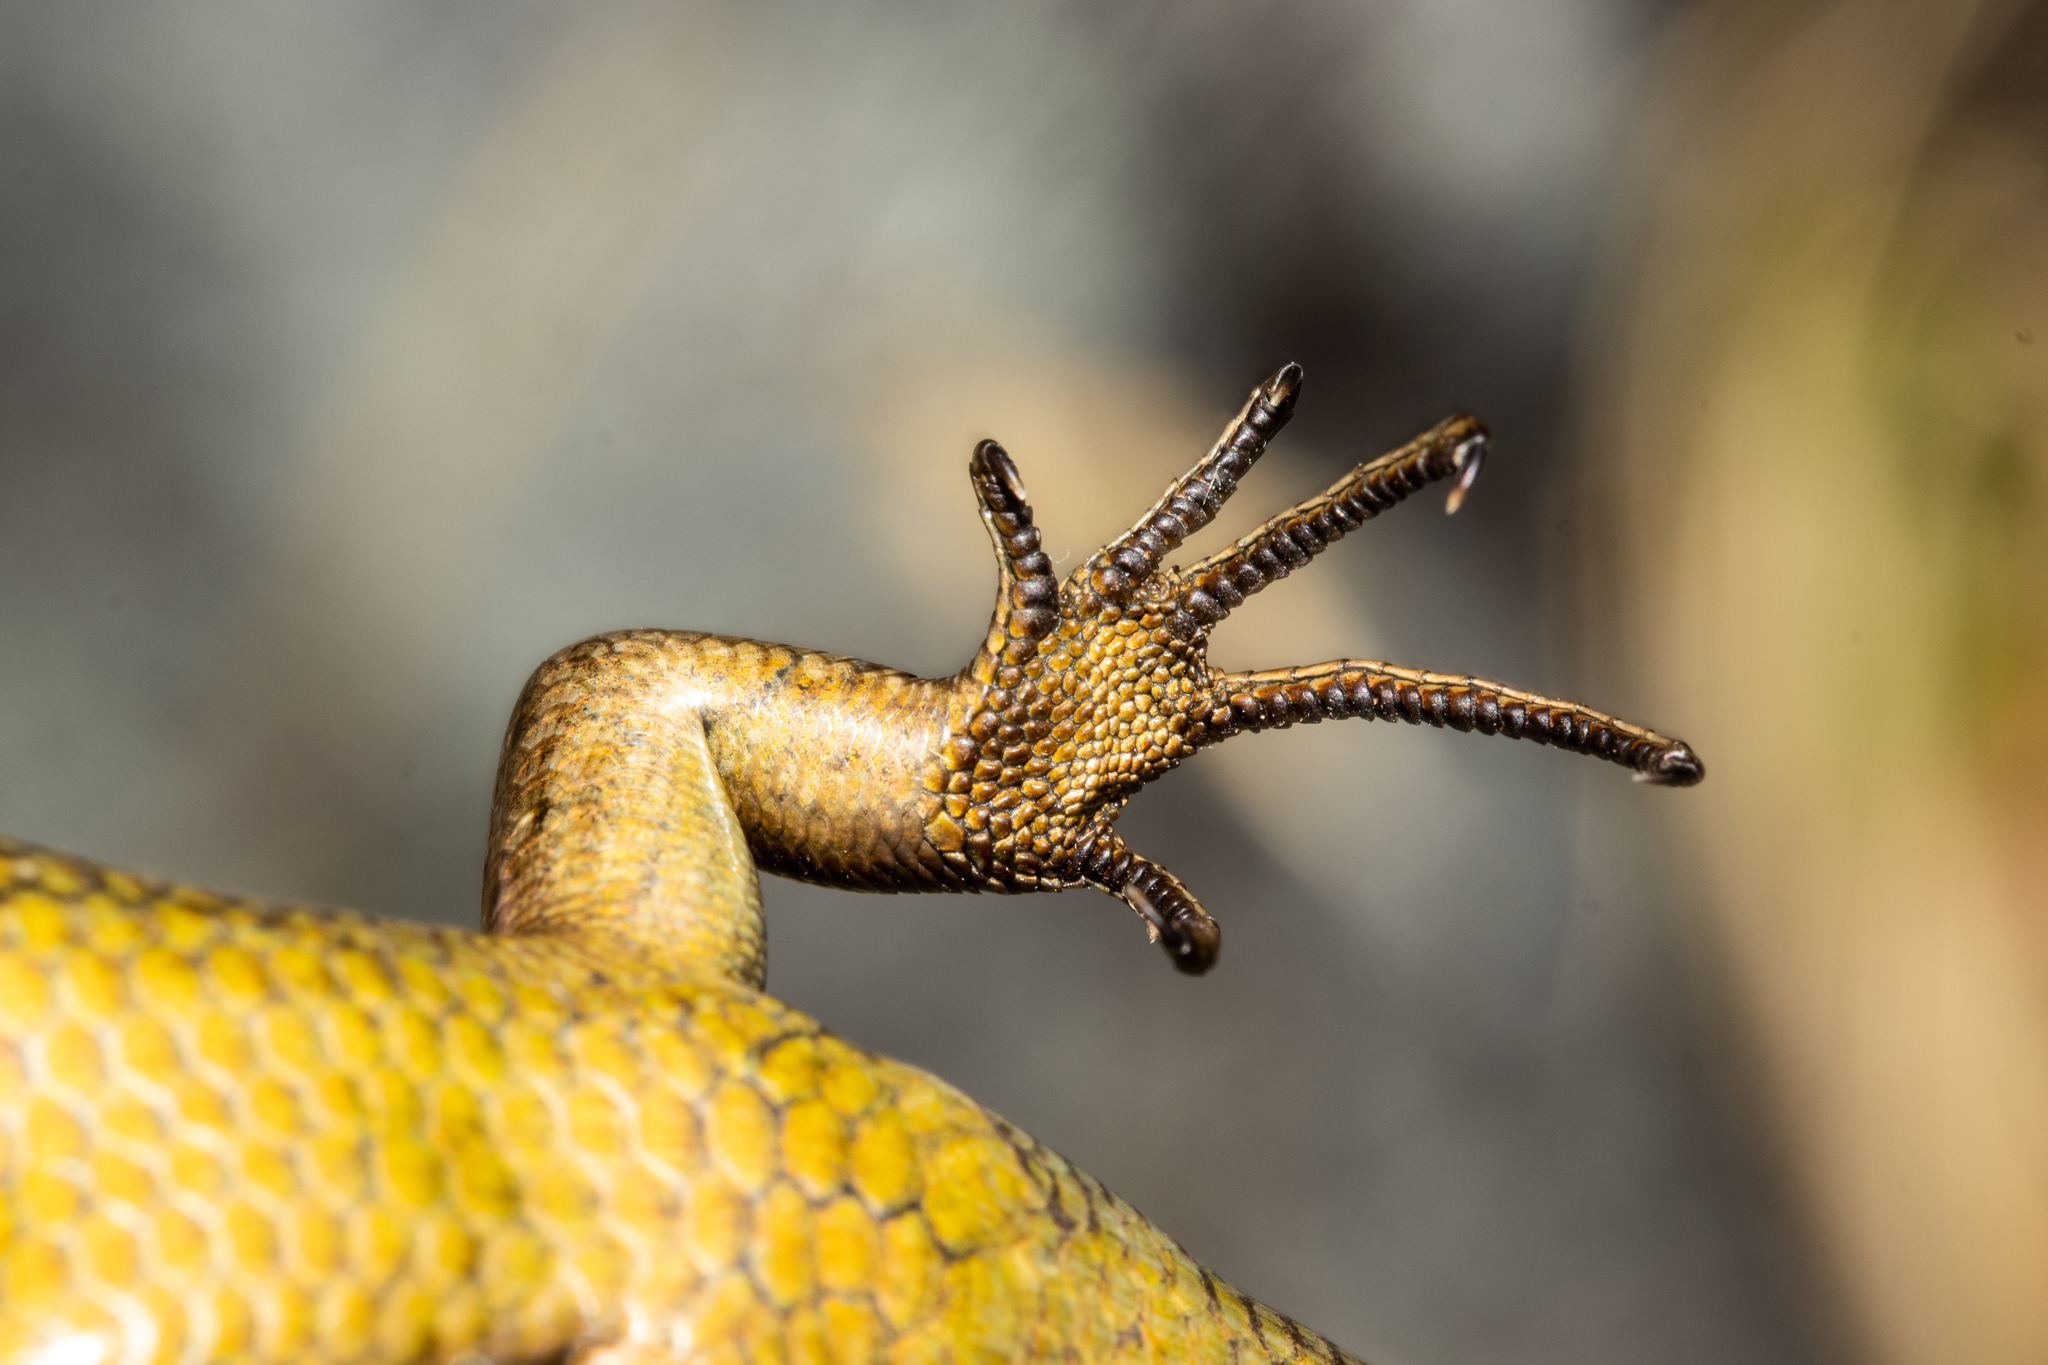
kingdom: Animalia
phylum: Chordata
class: Squamata
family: Scincidae
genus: Oligosoma
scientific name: Oligosoma inconspicuum
